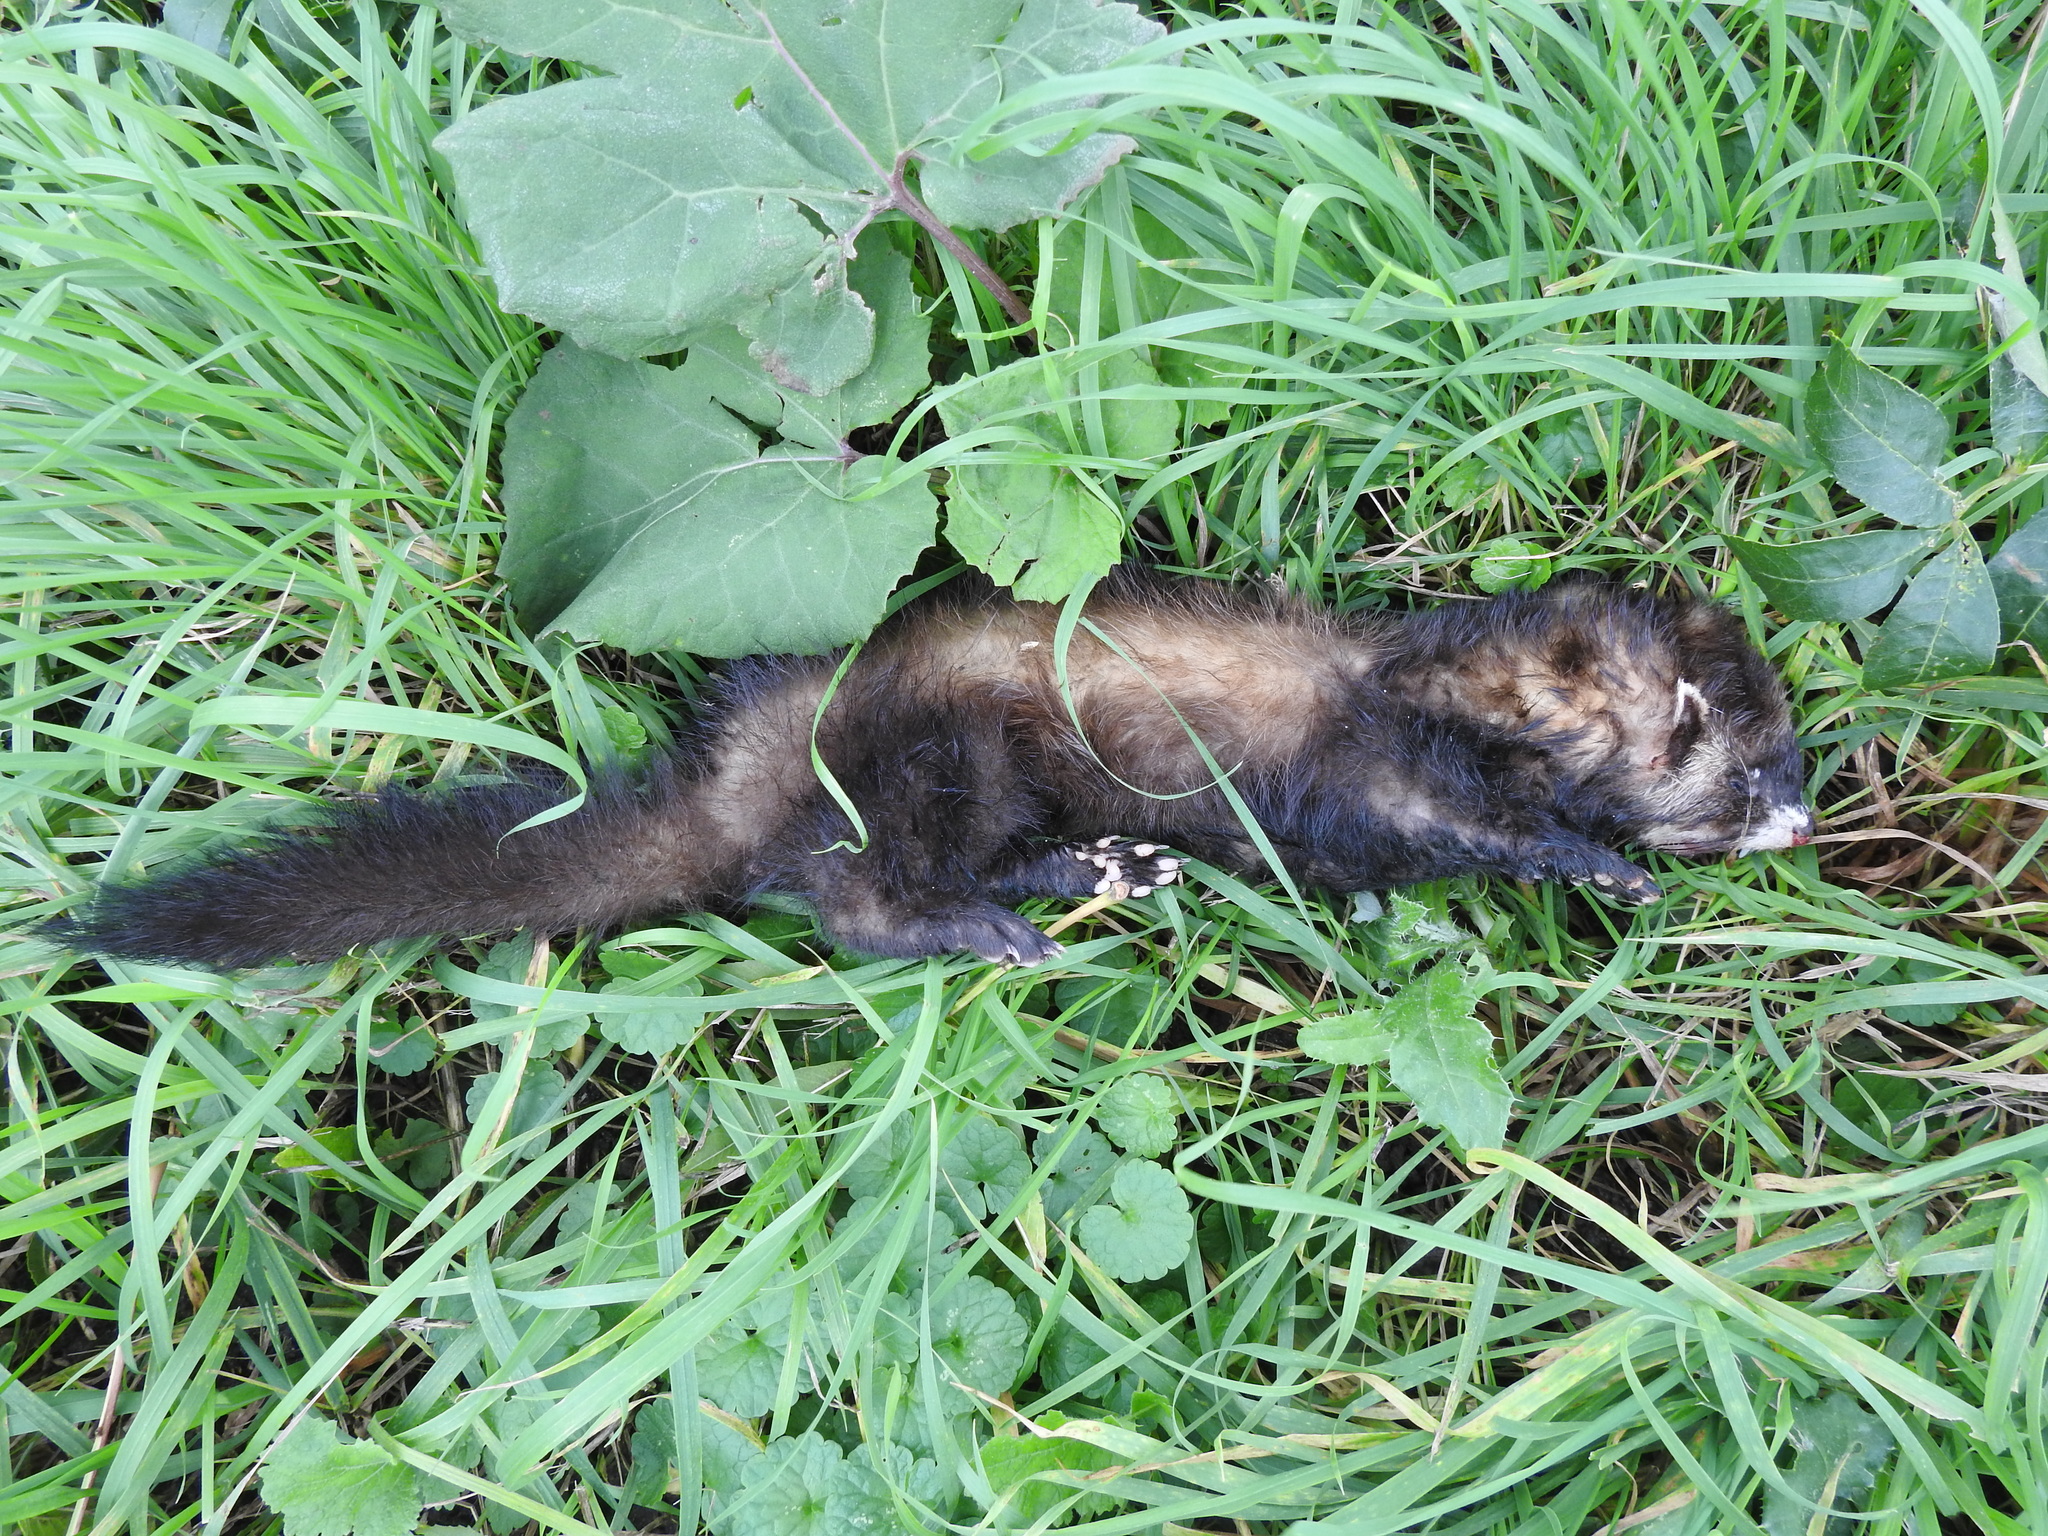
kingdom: Animalia
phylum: Chordata
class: Mammalia
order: Carnivora
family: Mustelidae
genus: Mustela
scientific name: Mustela putorius
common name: European polecat
